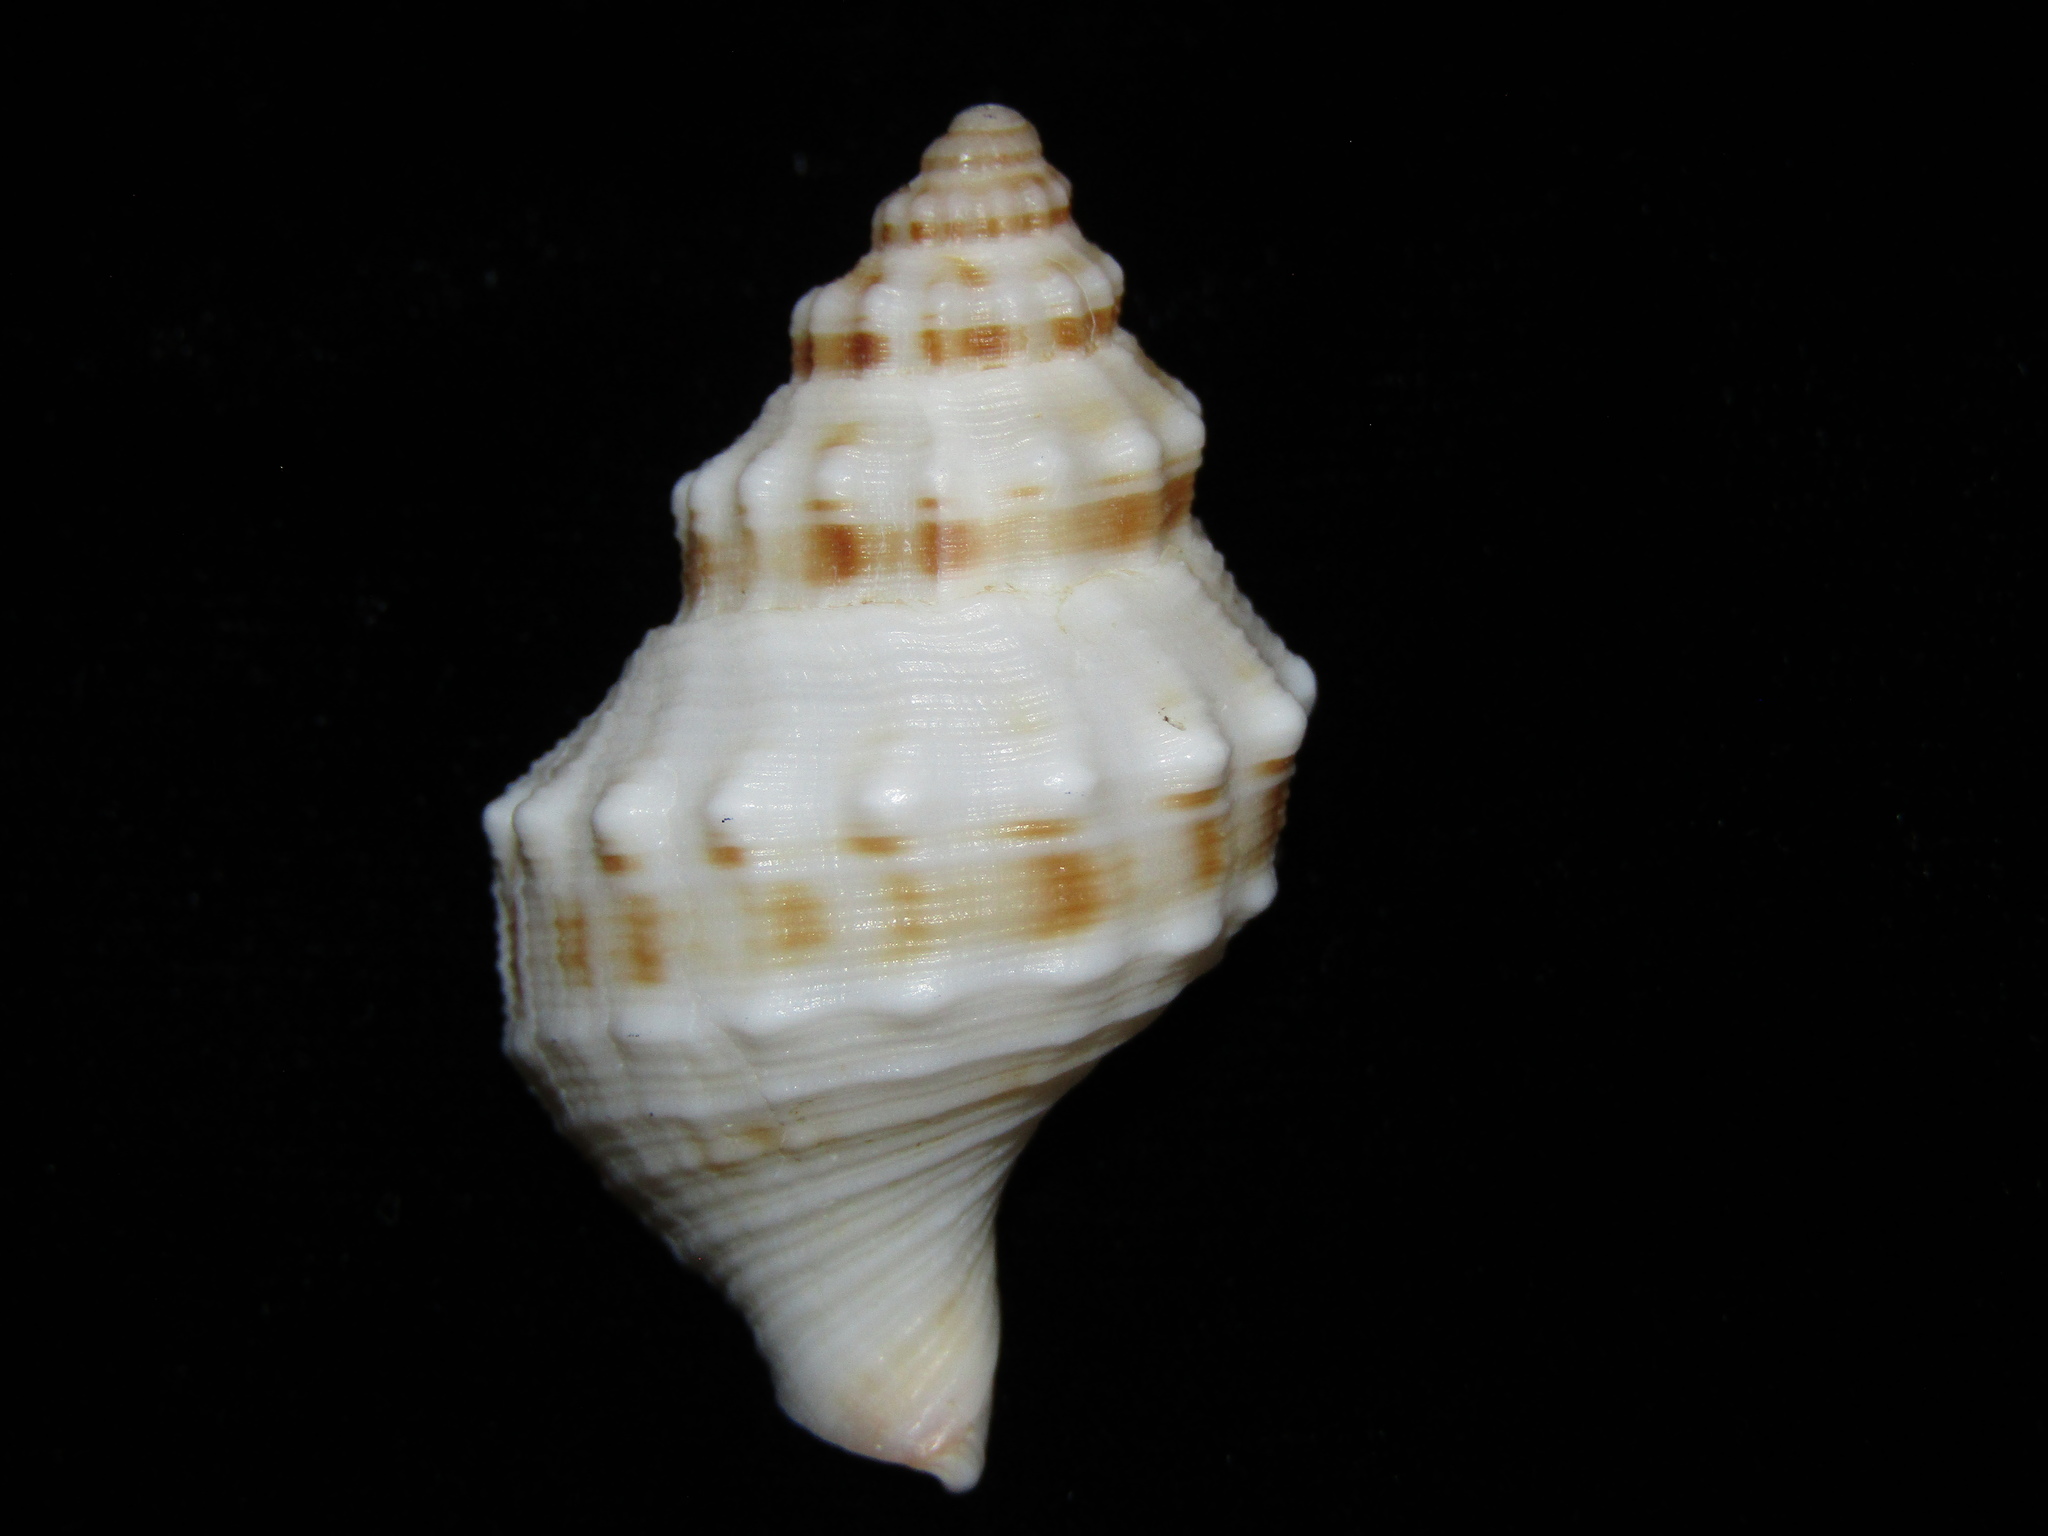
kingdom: Animalia
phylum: Mollusca
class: Gastropoda
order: Neogastropoda
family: Prosiphonidae
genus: Austrofusus
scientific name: Austrofusus glans
